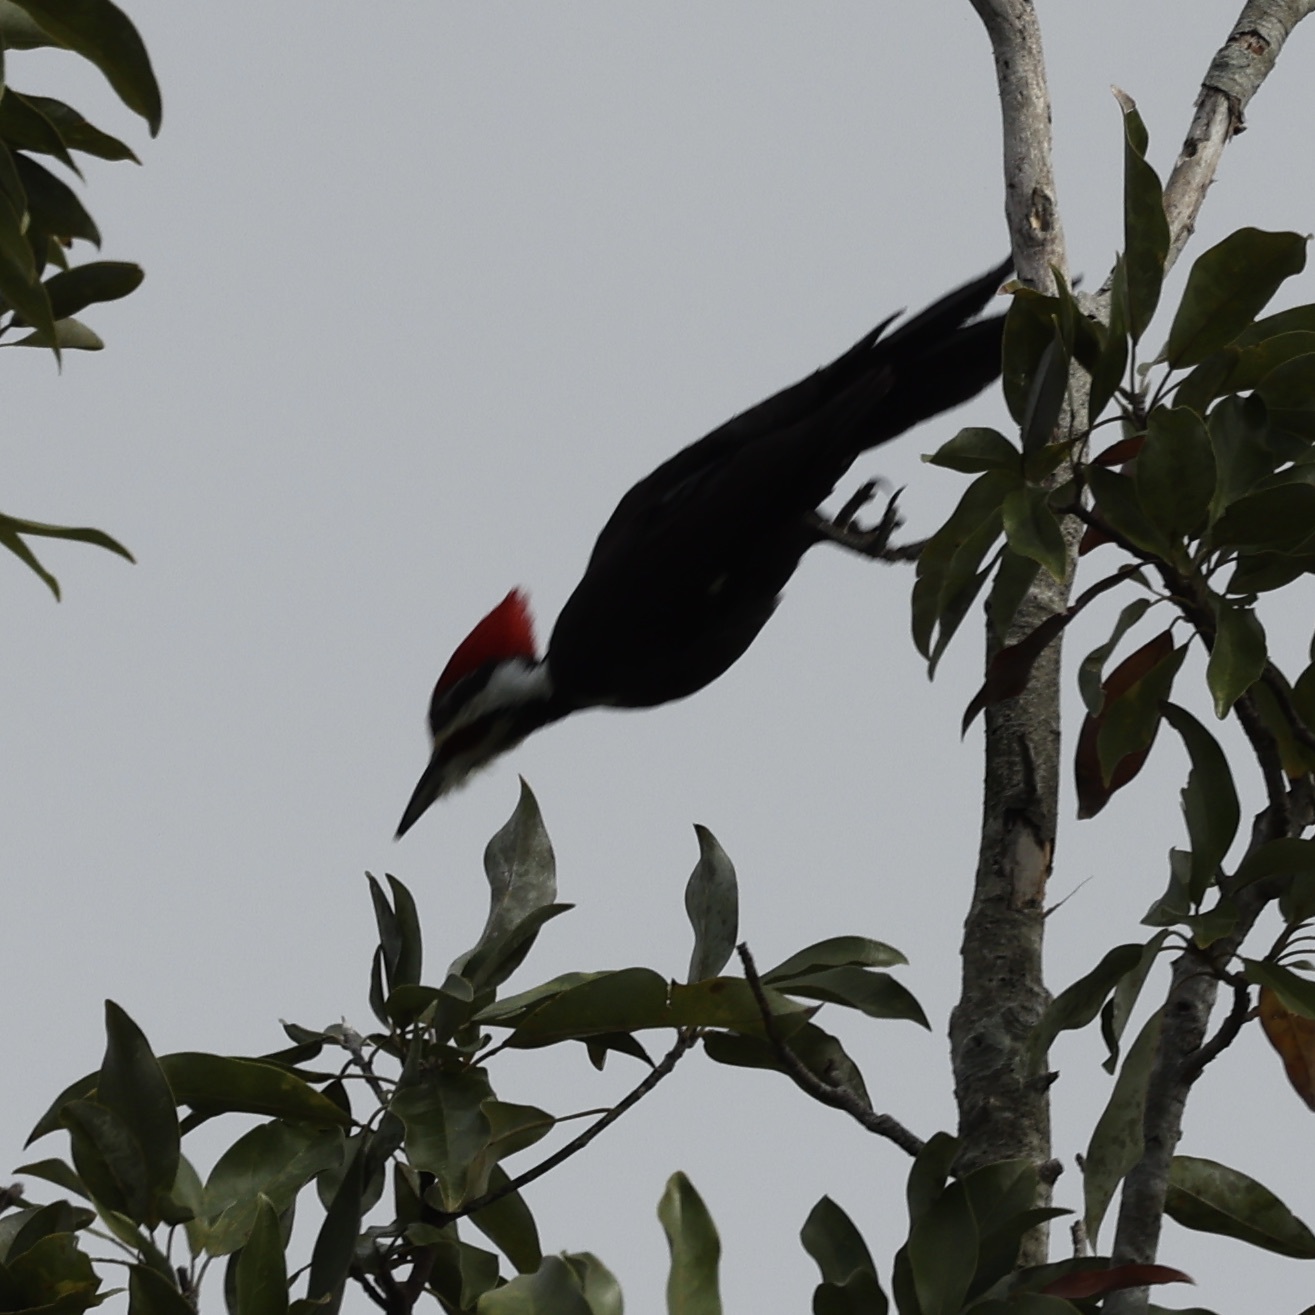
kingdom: Animalia
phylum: Chordata
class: Aves
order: Piciformes
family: Picidae
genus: Dryocopus
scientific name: Dryocopus pileatus
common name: Pileated woodpecker
